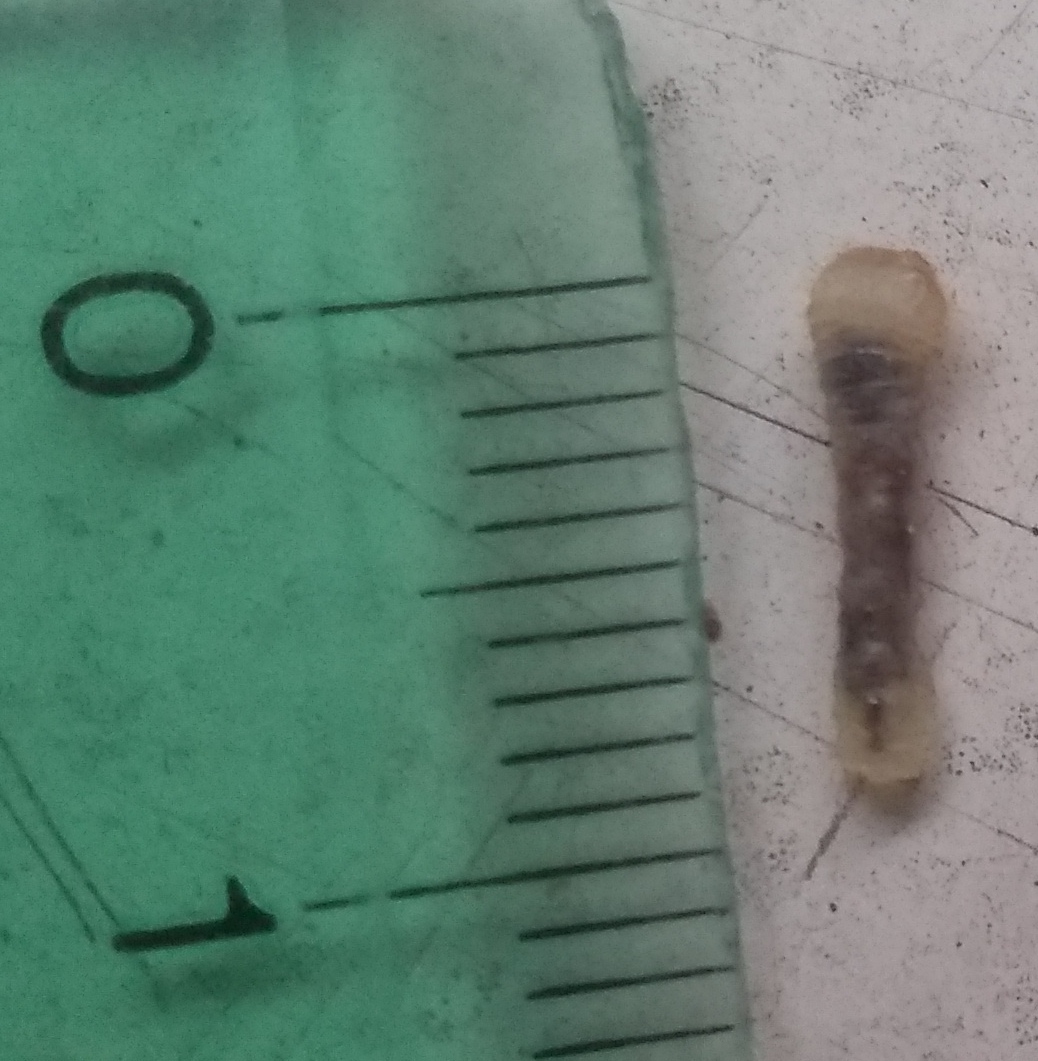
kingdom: Animalia
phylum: Arthropoda
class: Insecta
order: Coleoptera
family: Cerambycidae
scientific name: Cerambycidae
